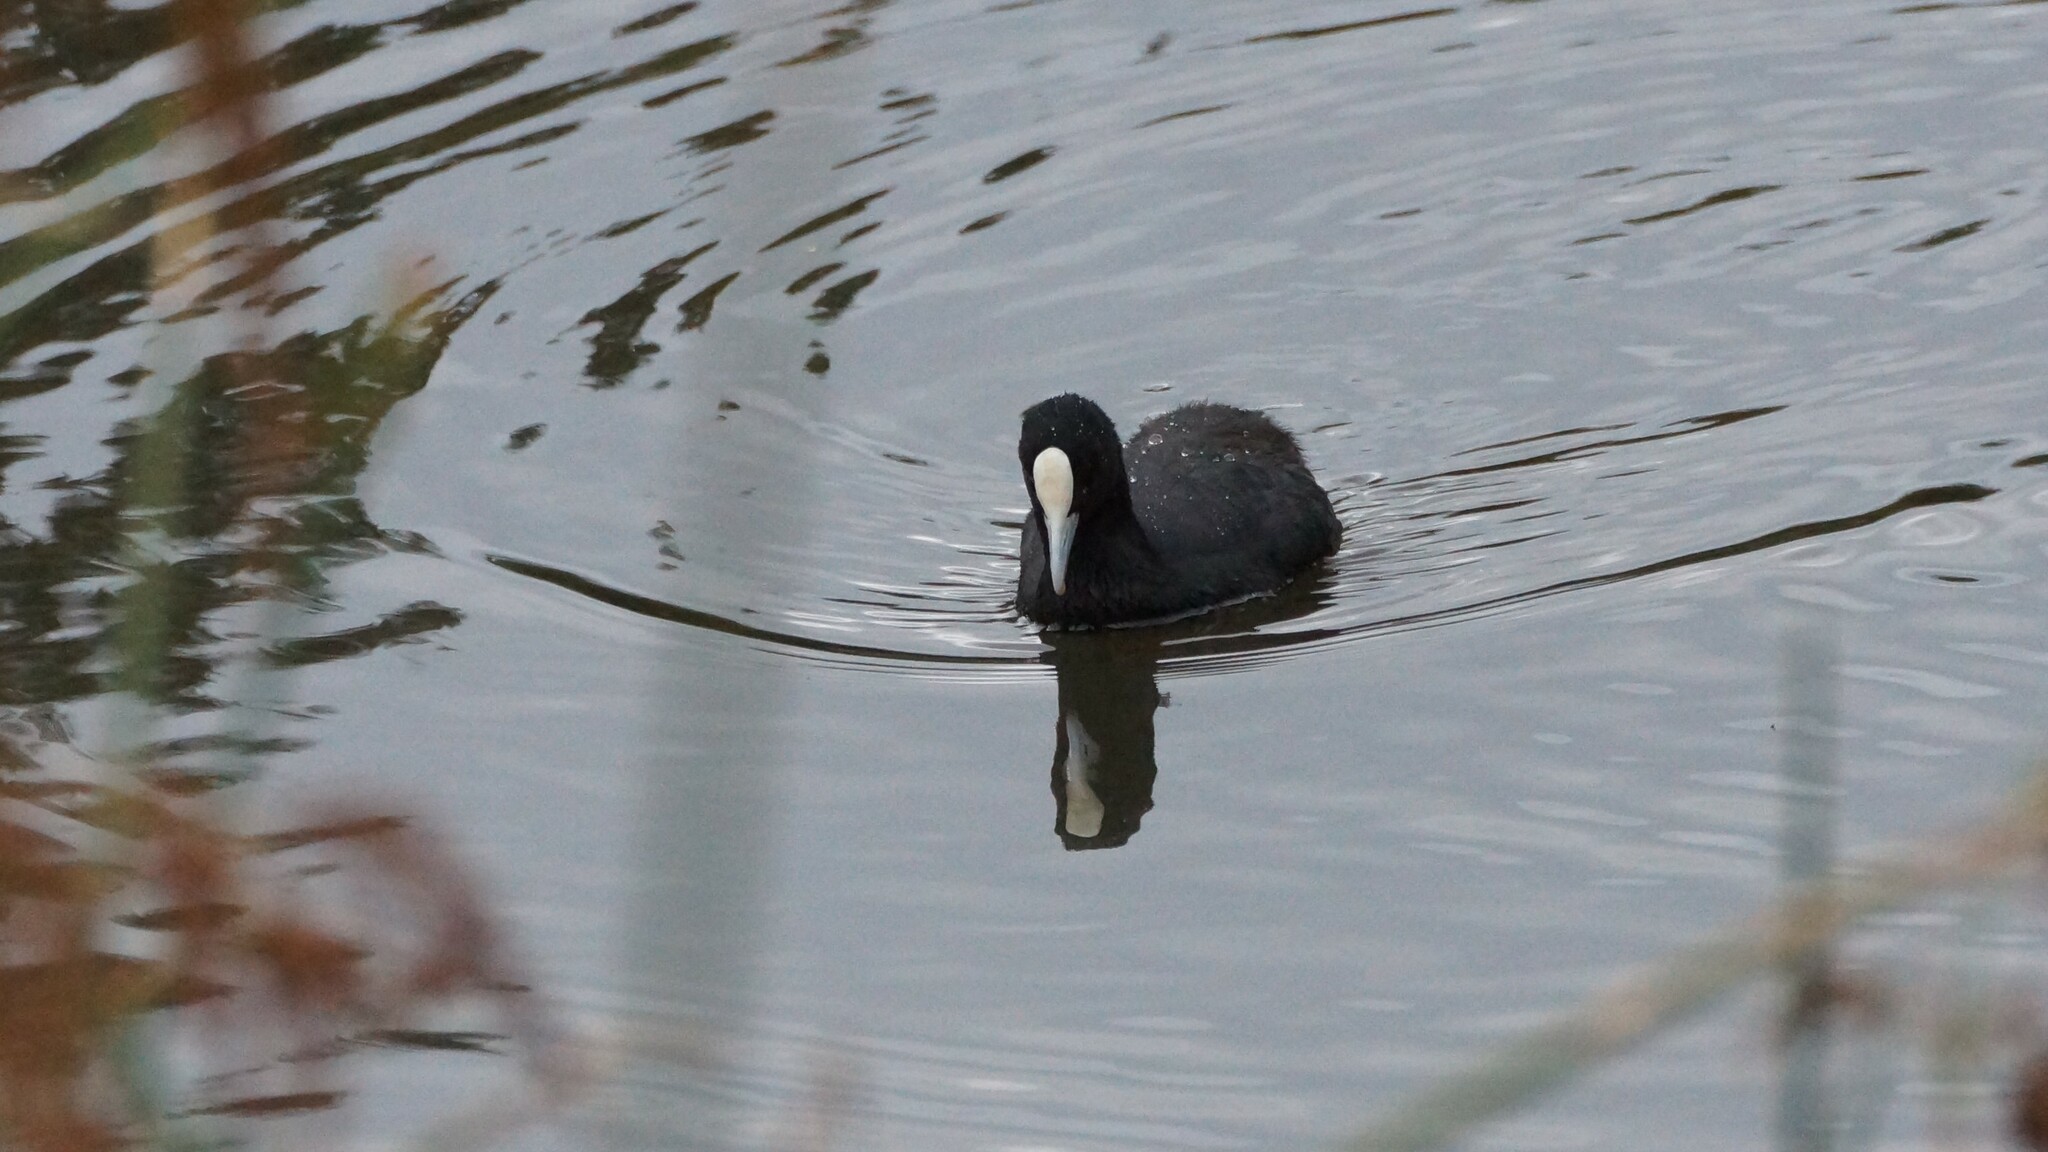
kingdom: Animalia
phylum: Chordata
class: Aves
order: Gruiformes
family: Rallidae
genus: Fulica
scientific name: Fulica atra
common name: Eurasian coot
